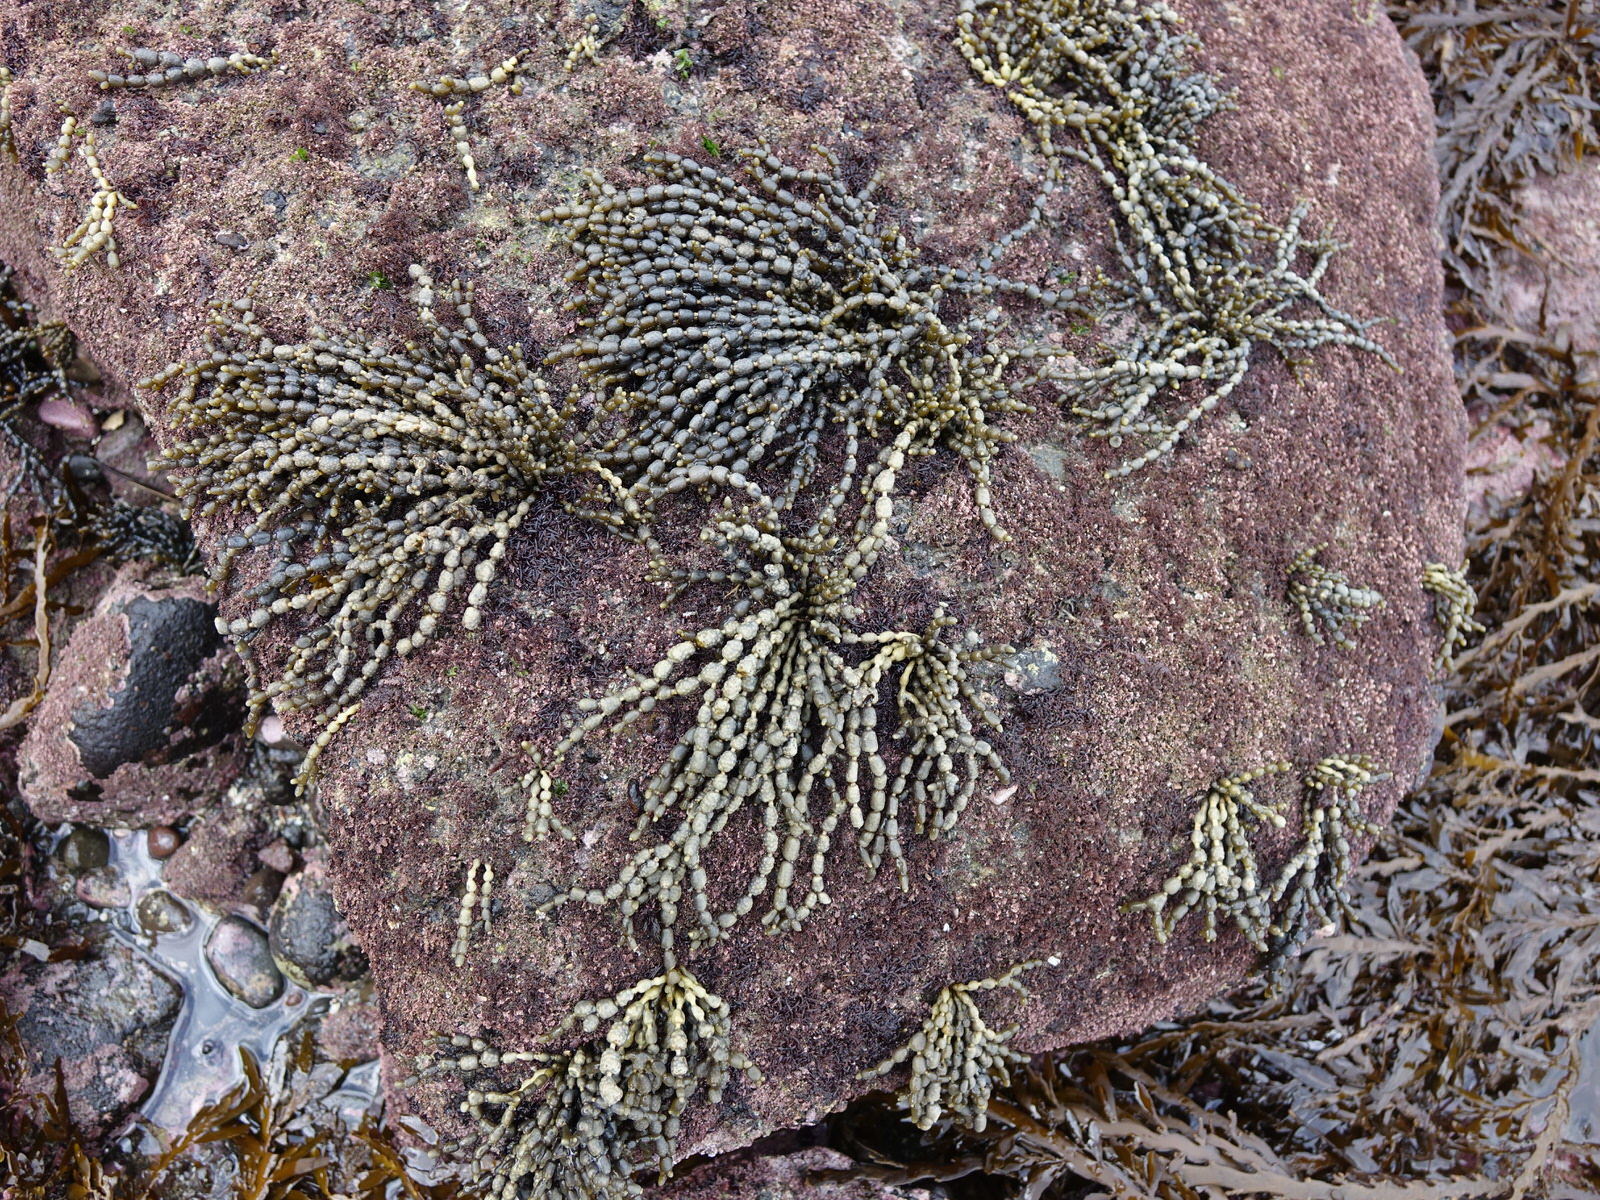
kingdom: Chromista
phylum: Ochrophyta
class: Phaeophyceae
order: Fucales
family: Hormosiraceae
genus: Hormosira
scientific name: Hormosira banksii
